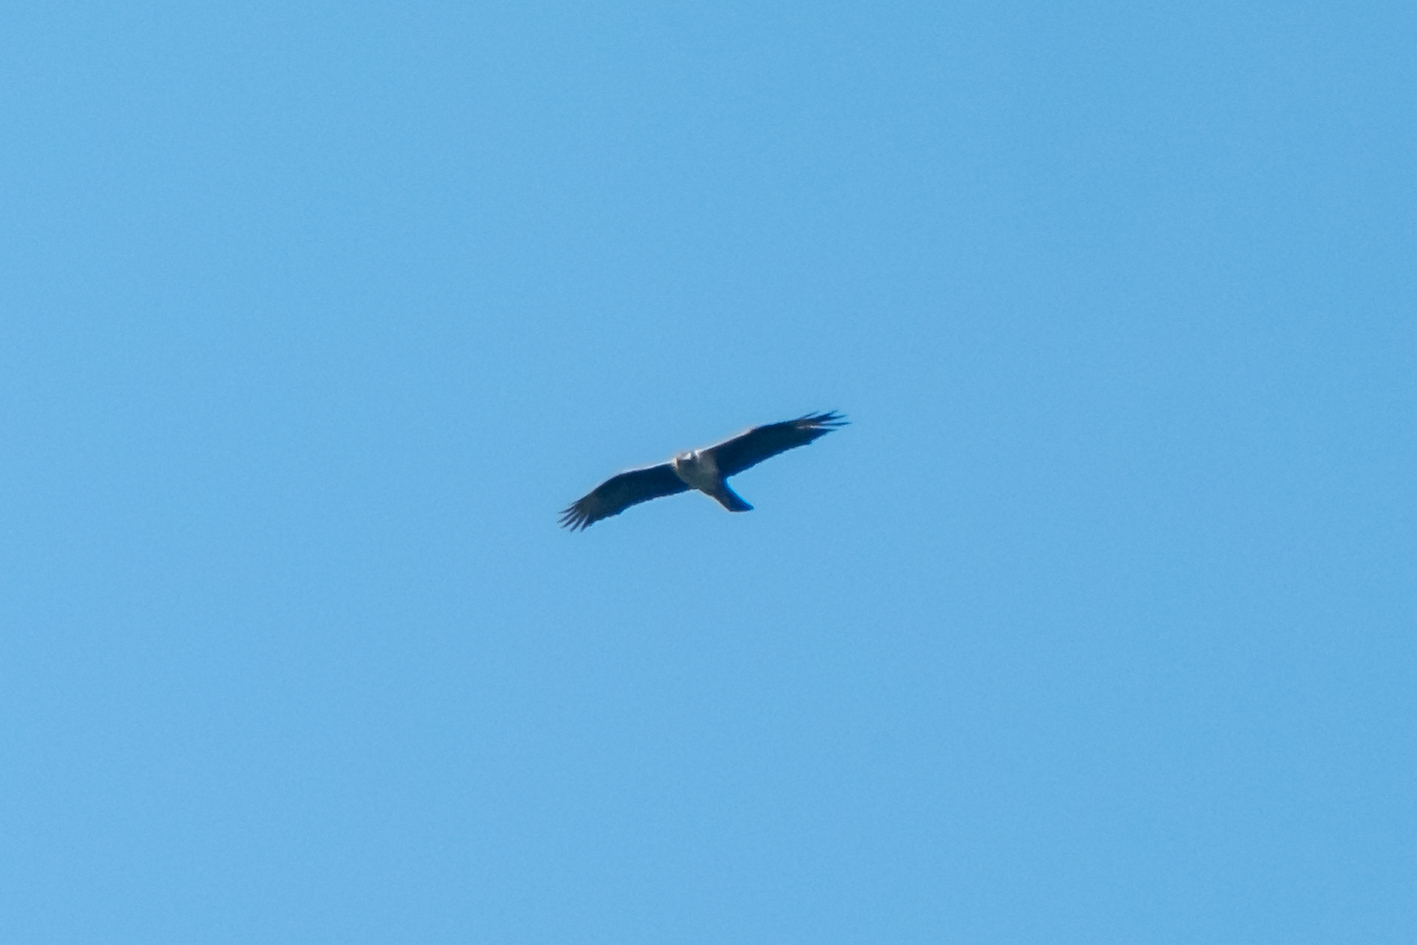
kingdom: Animalia
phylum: Chordata
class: Aves
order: Accipitriformes
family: Accipitridae
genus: Aquila
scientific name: Aquila fasciata
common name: Bonelli's eagle
